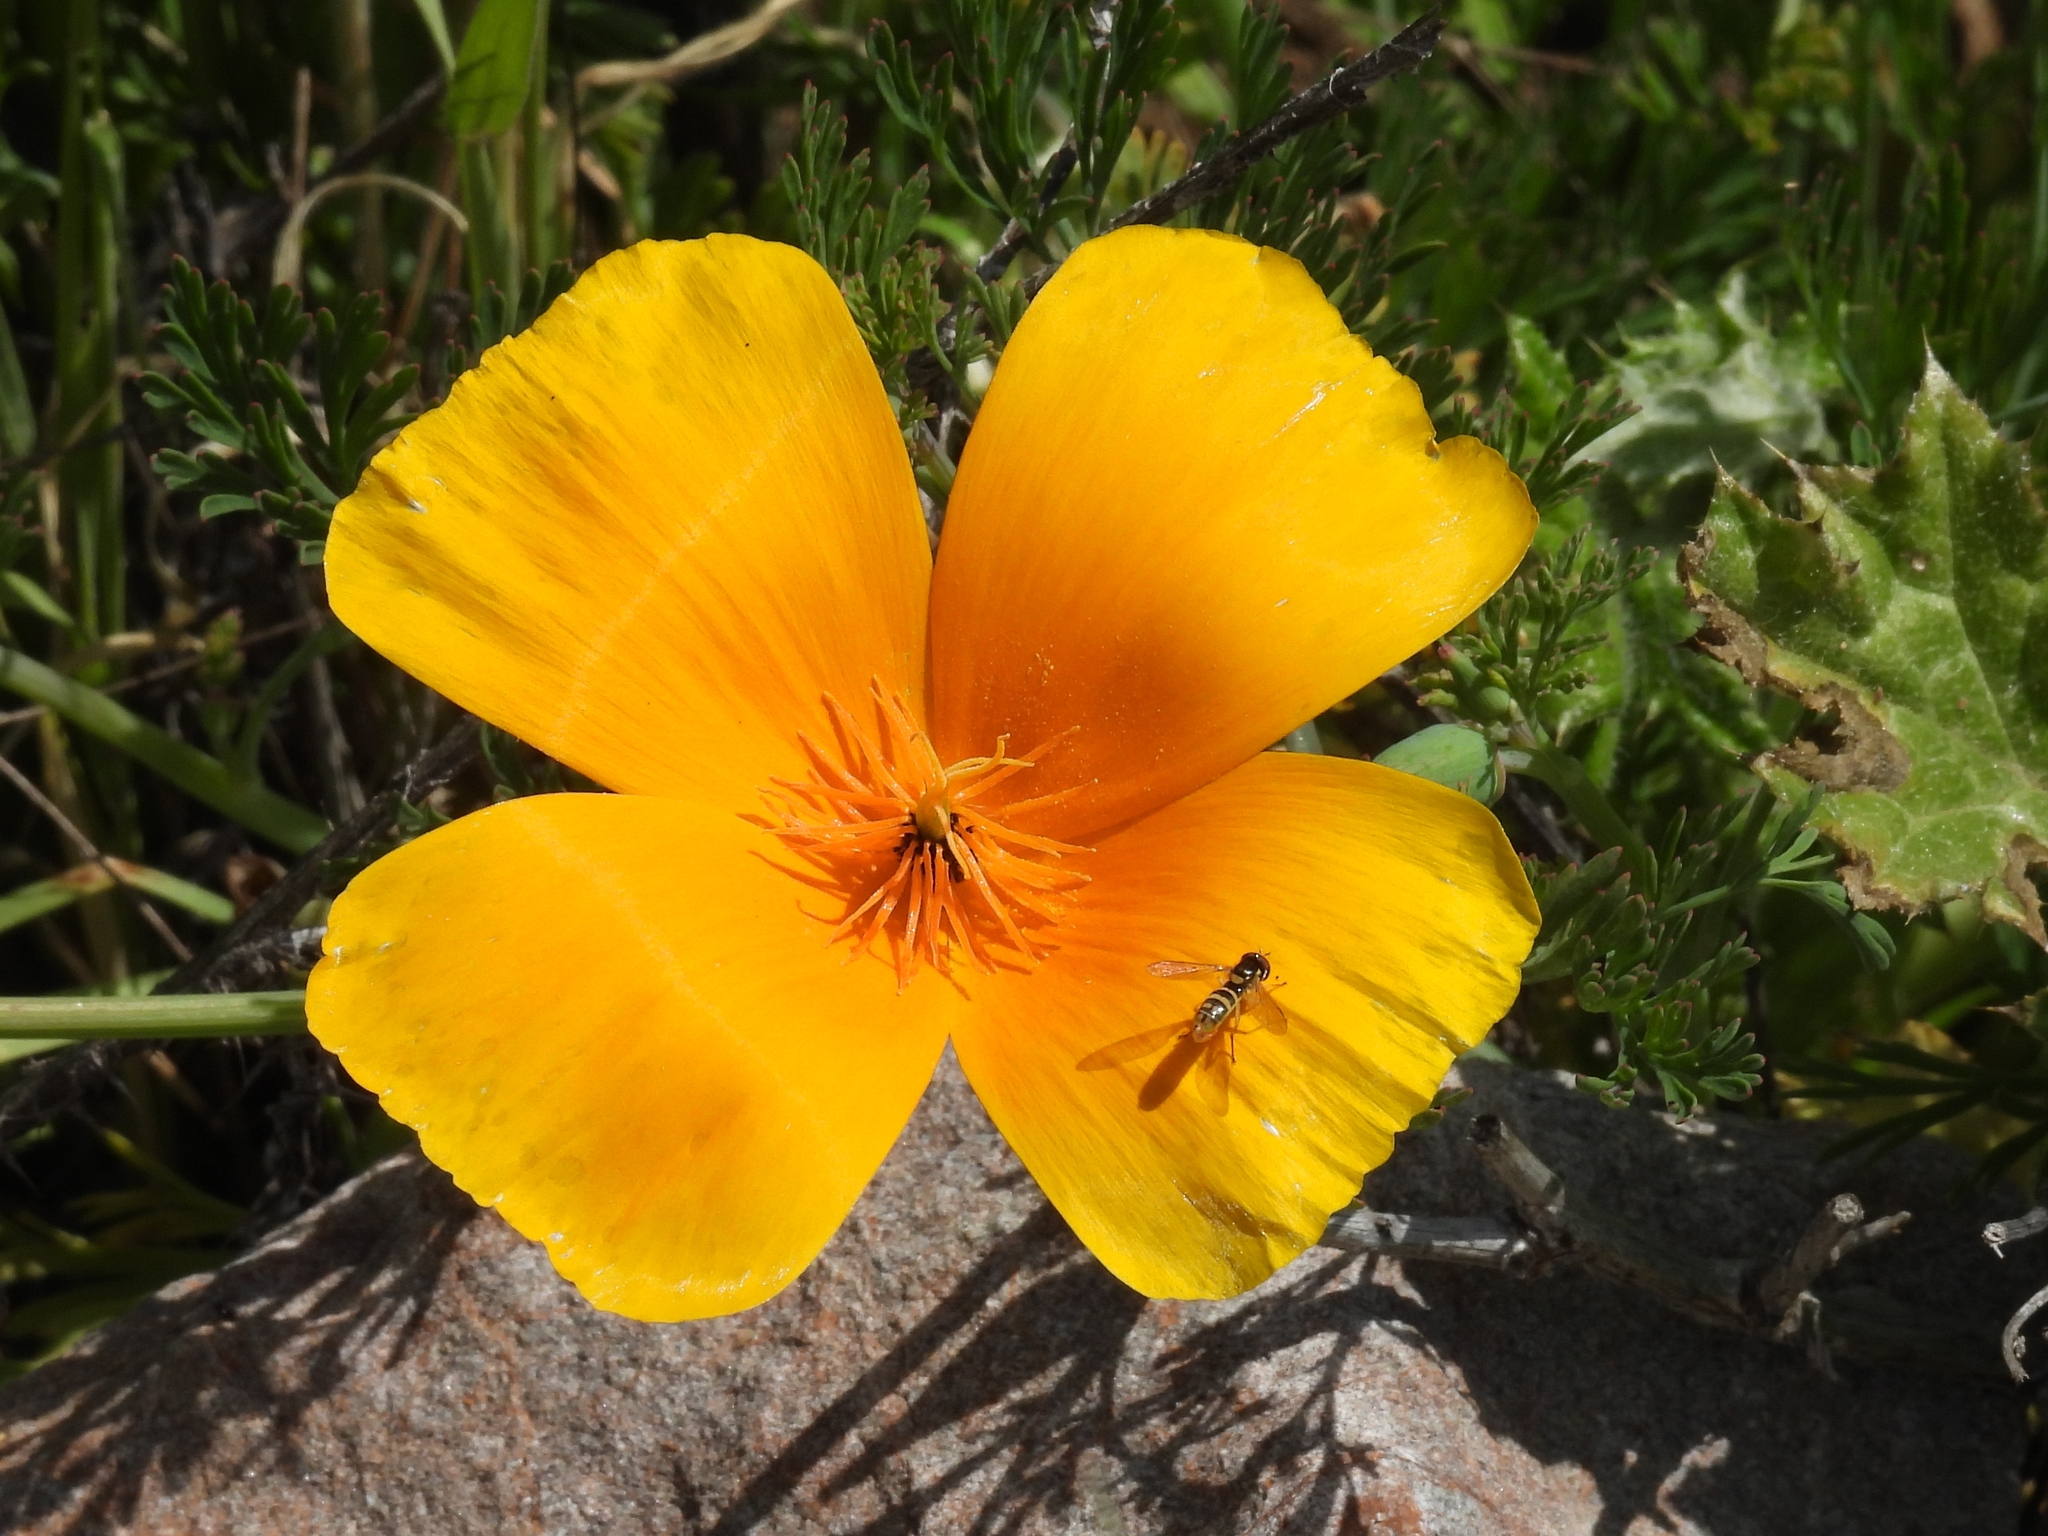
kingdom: Plantae
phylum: Tracheophyta
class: Magnoliopsida
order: Ranunculales
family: Papaveraceae
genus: Eschscholzia
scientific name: Eschscholzia californica
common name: California poppy
